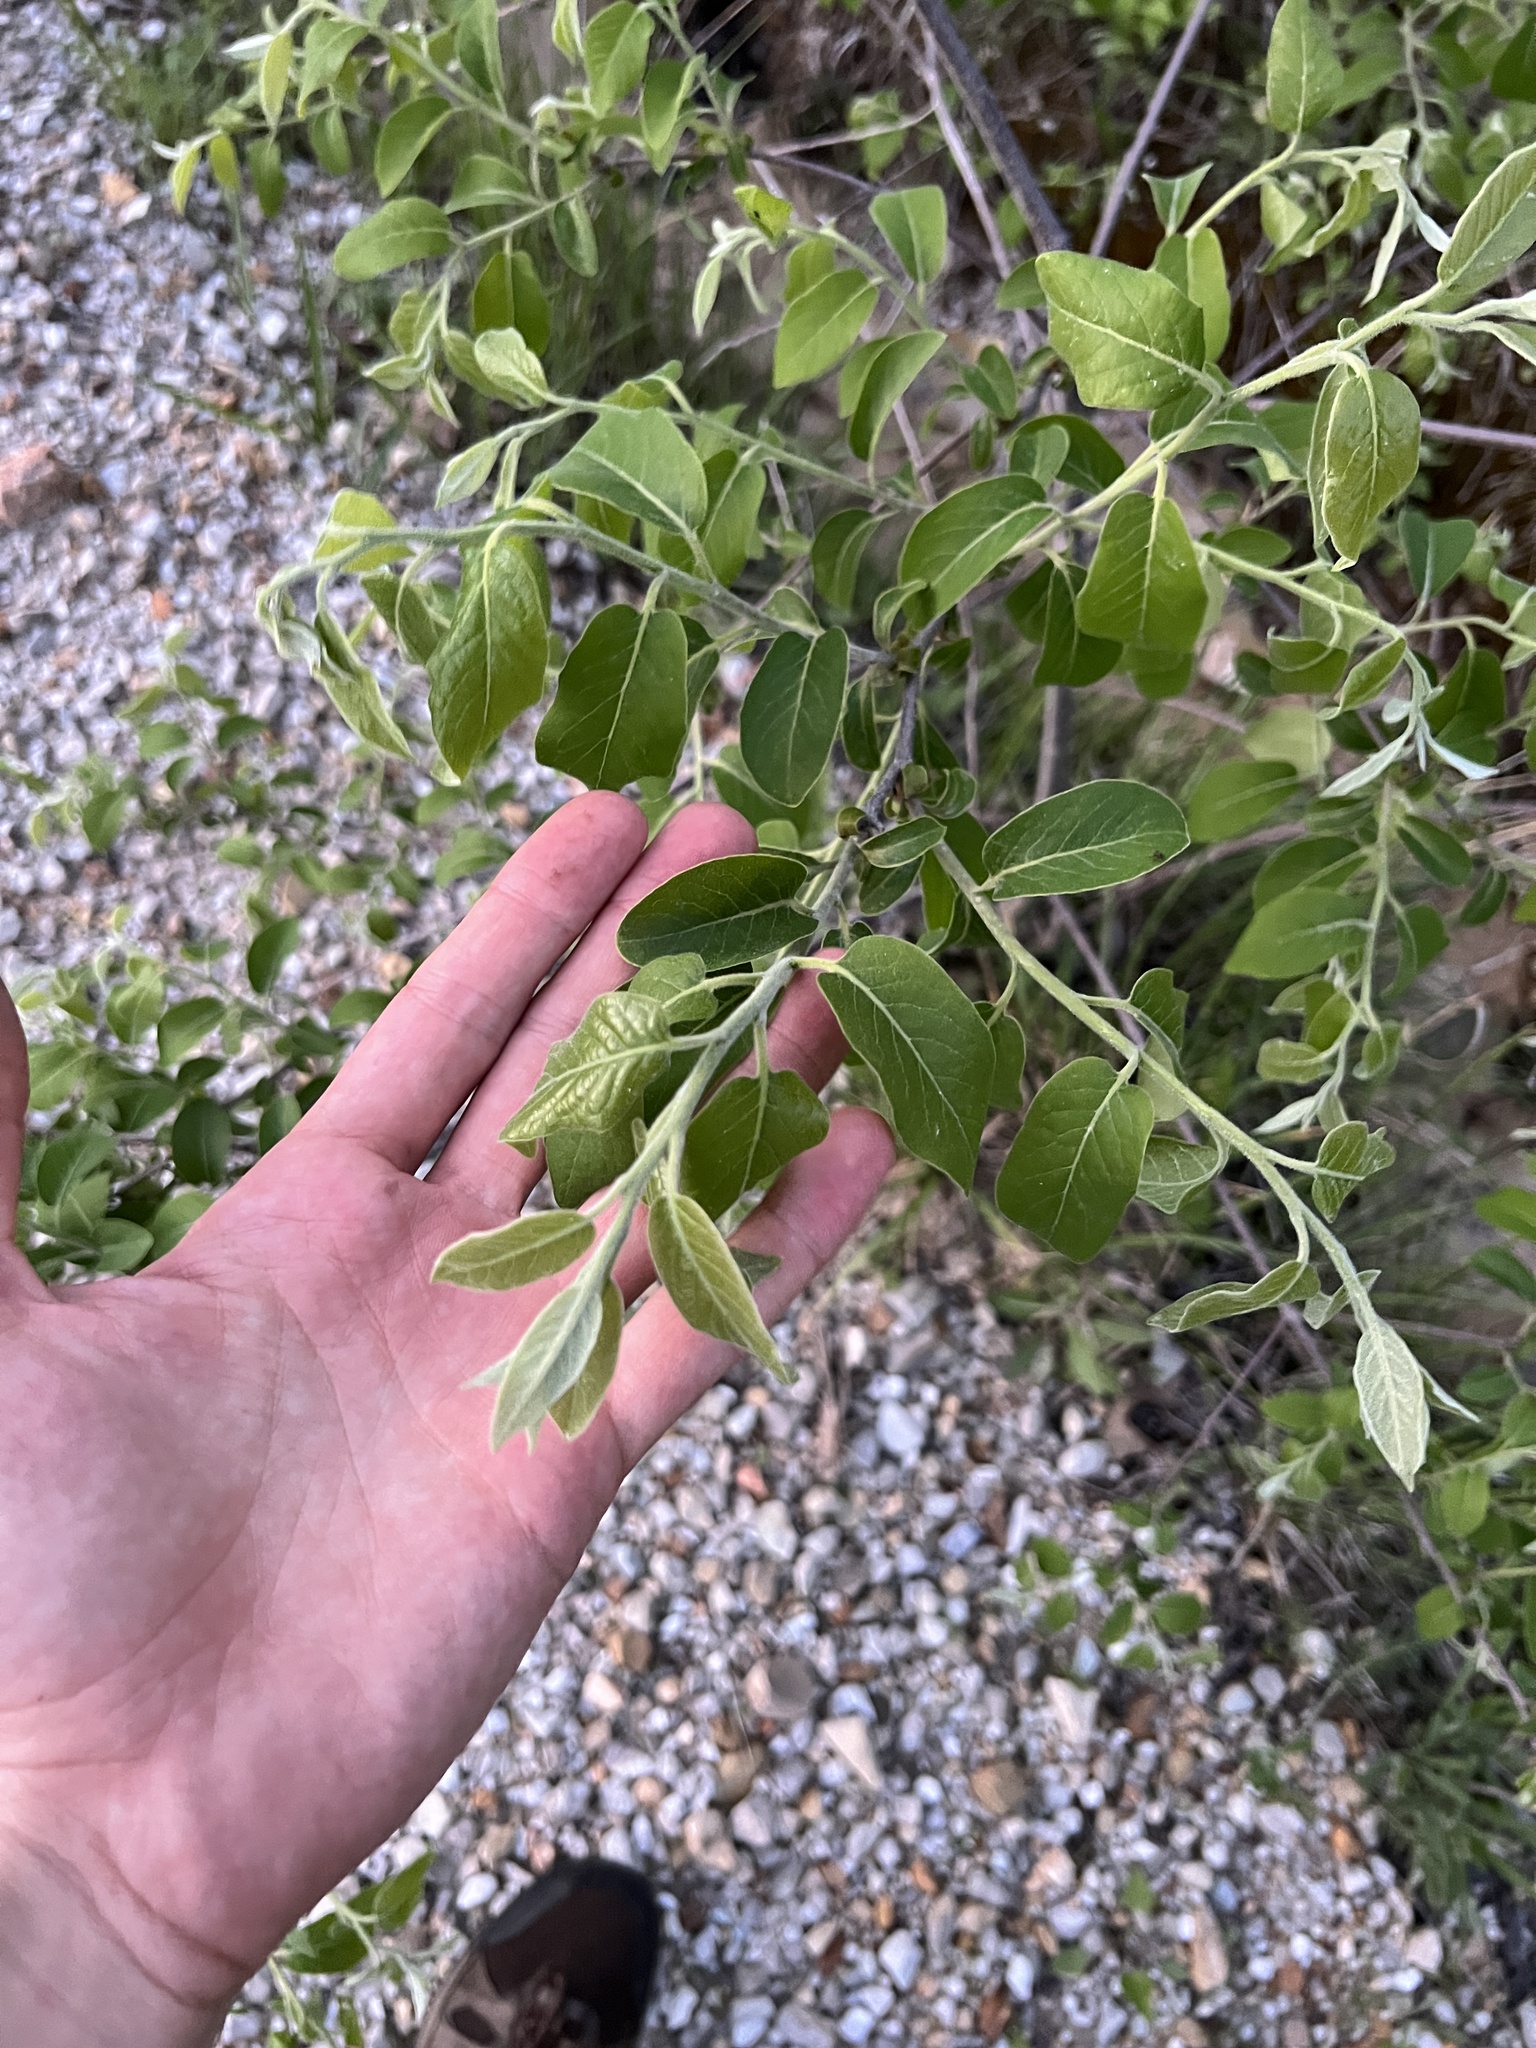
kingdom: Plantae
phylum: Tracheophyta
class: Magnoliopsida
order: Ericales
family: Ebenaceae
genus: Diospyros
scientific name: Diospyros virginiana
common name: Persimmon
